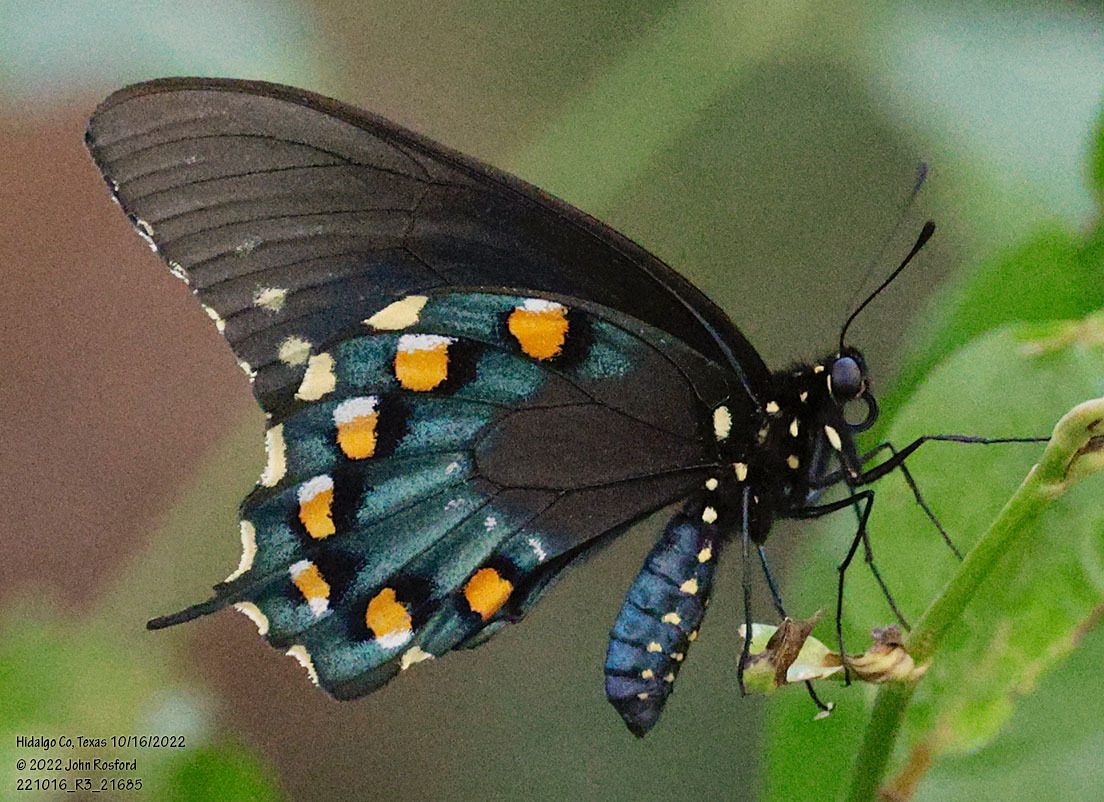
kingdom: Animalia
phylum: Arthropoda
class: Insecta
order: Lepidoptera
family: Papilionidae
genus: Battus
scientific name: Battus philenor
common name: Pipevine swallowtail
